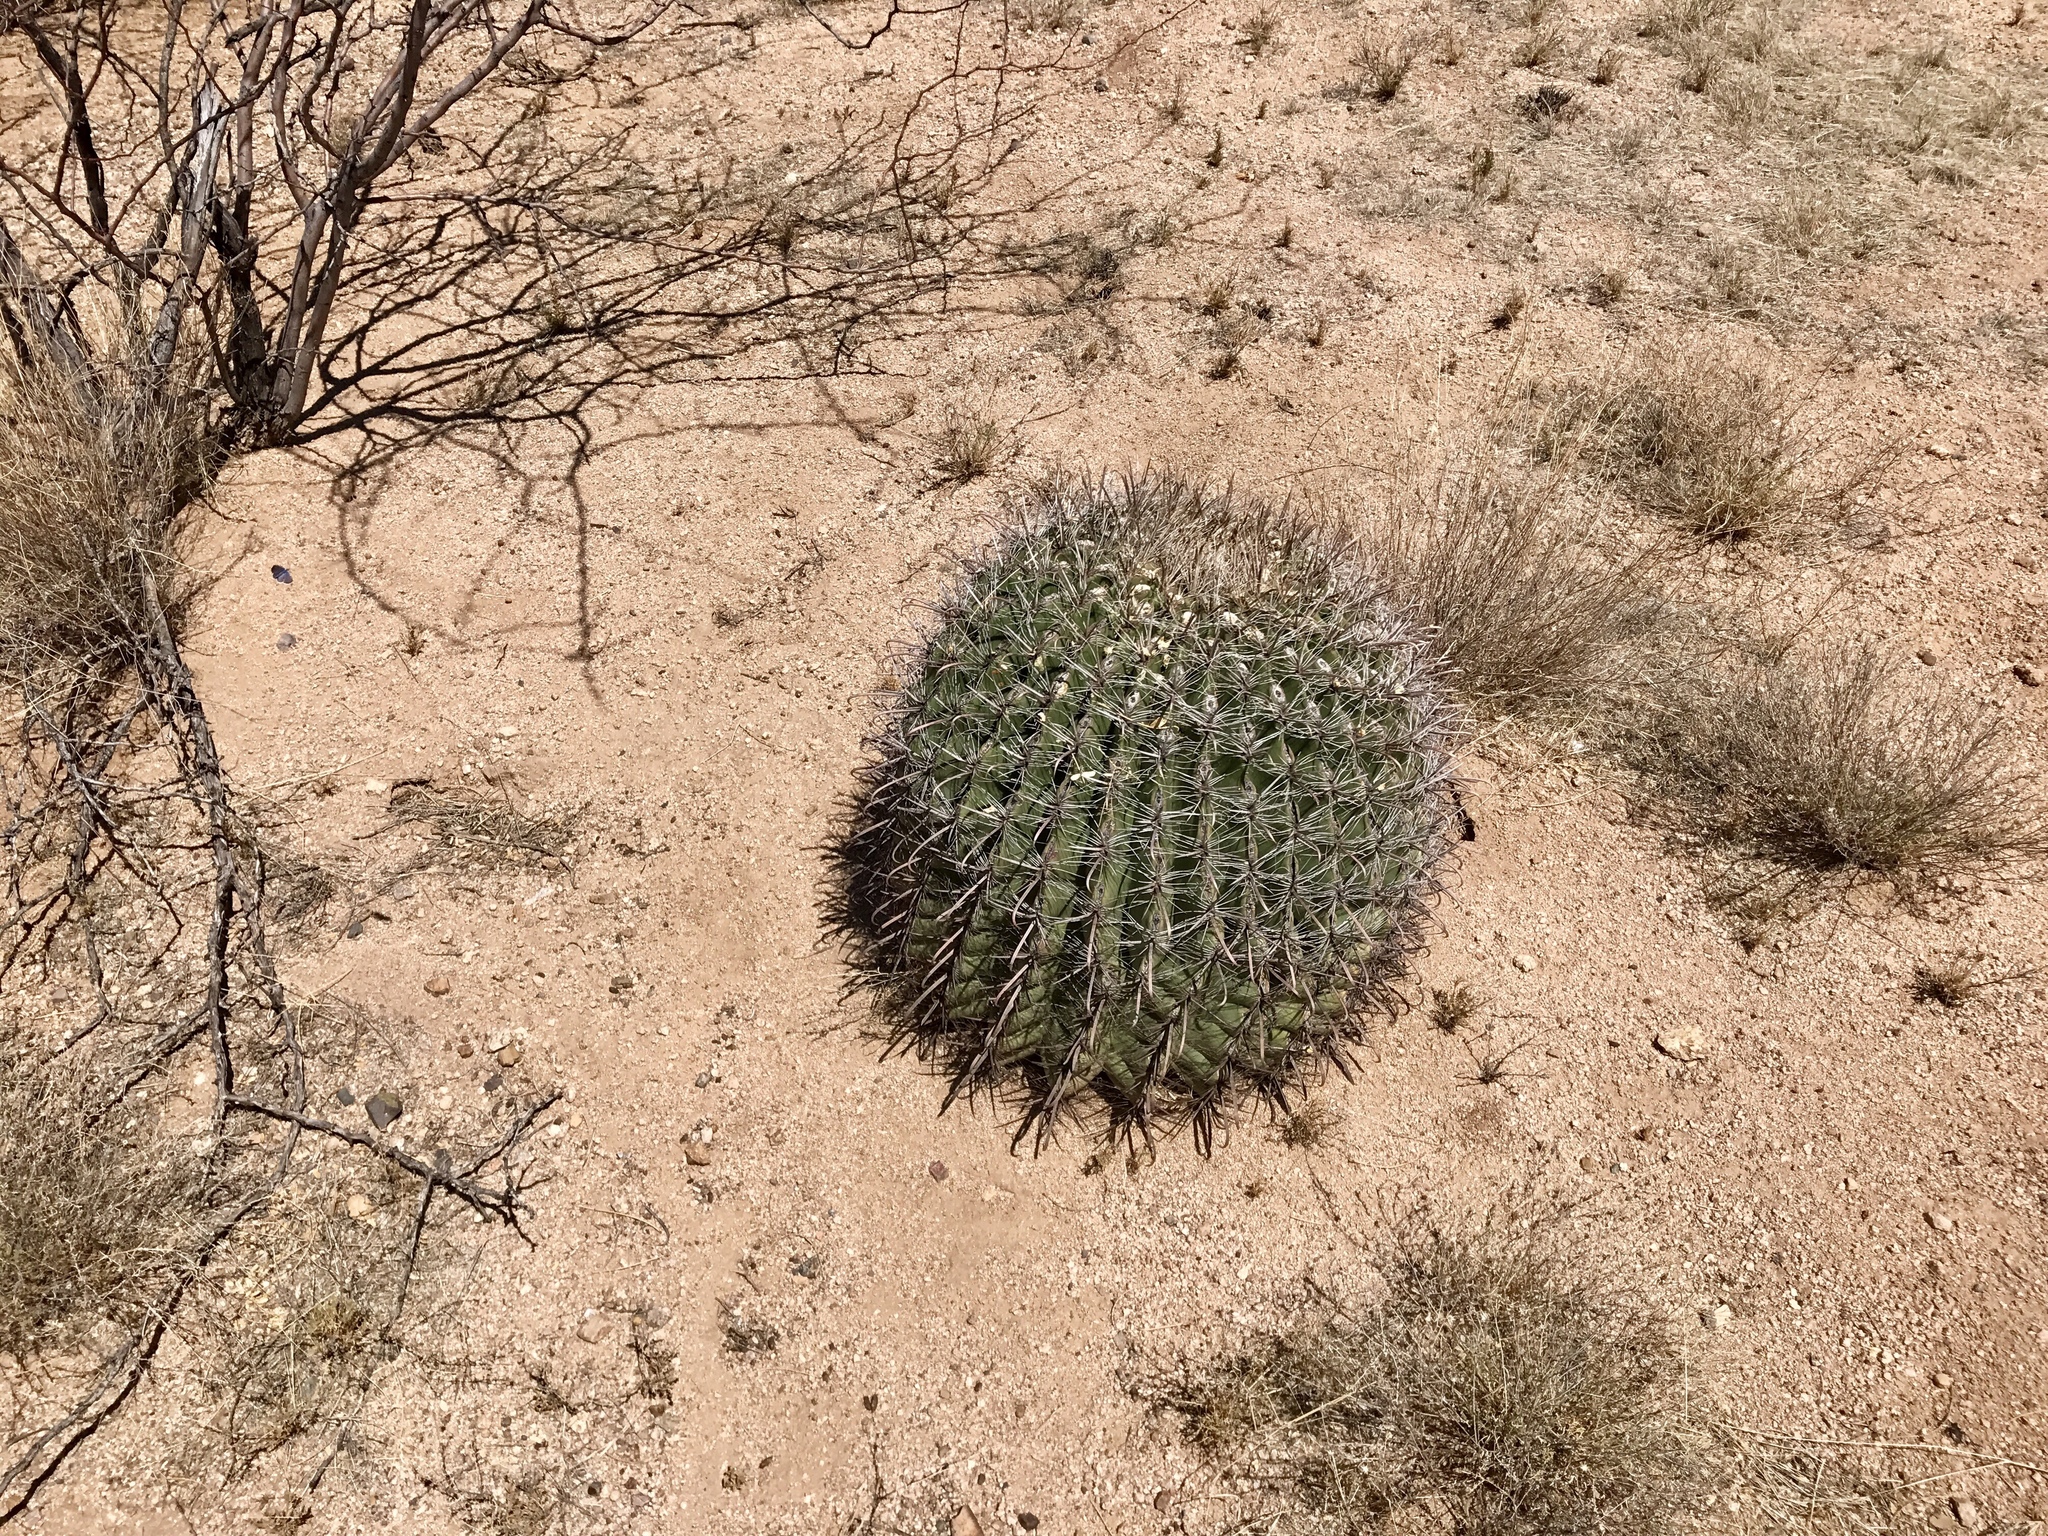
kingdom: Plantae
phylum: Tracheophyta
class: Magnoliopsida
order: Caryophyllales
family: Cactaceae
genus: Ferocactus
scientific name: Ferocactus wislizeni
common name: Candy barrel cactus
